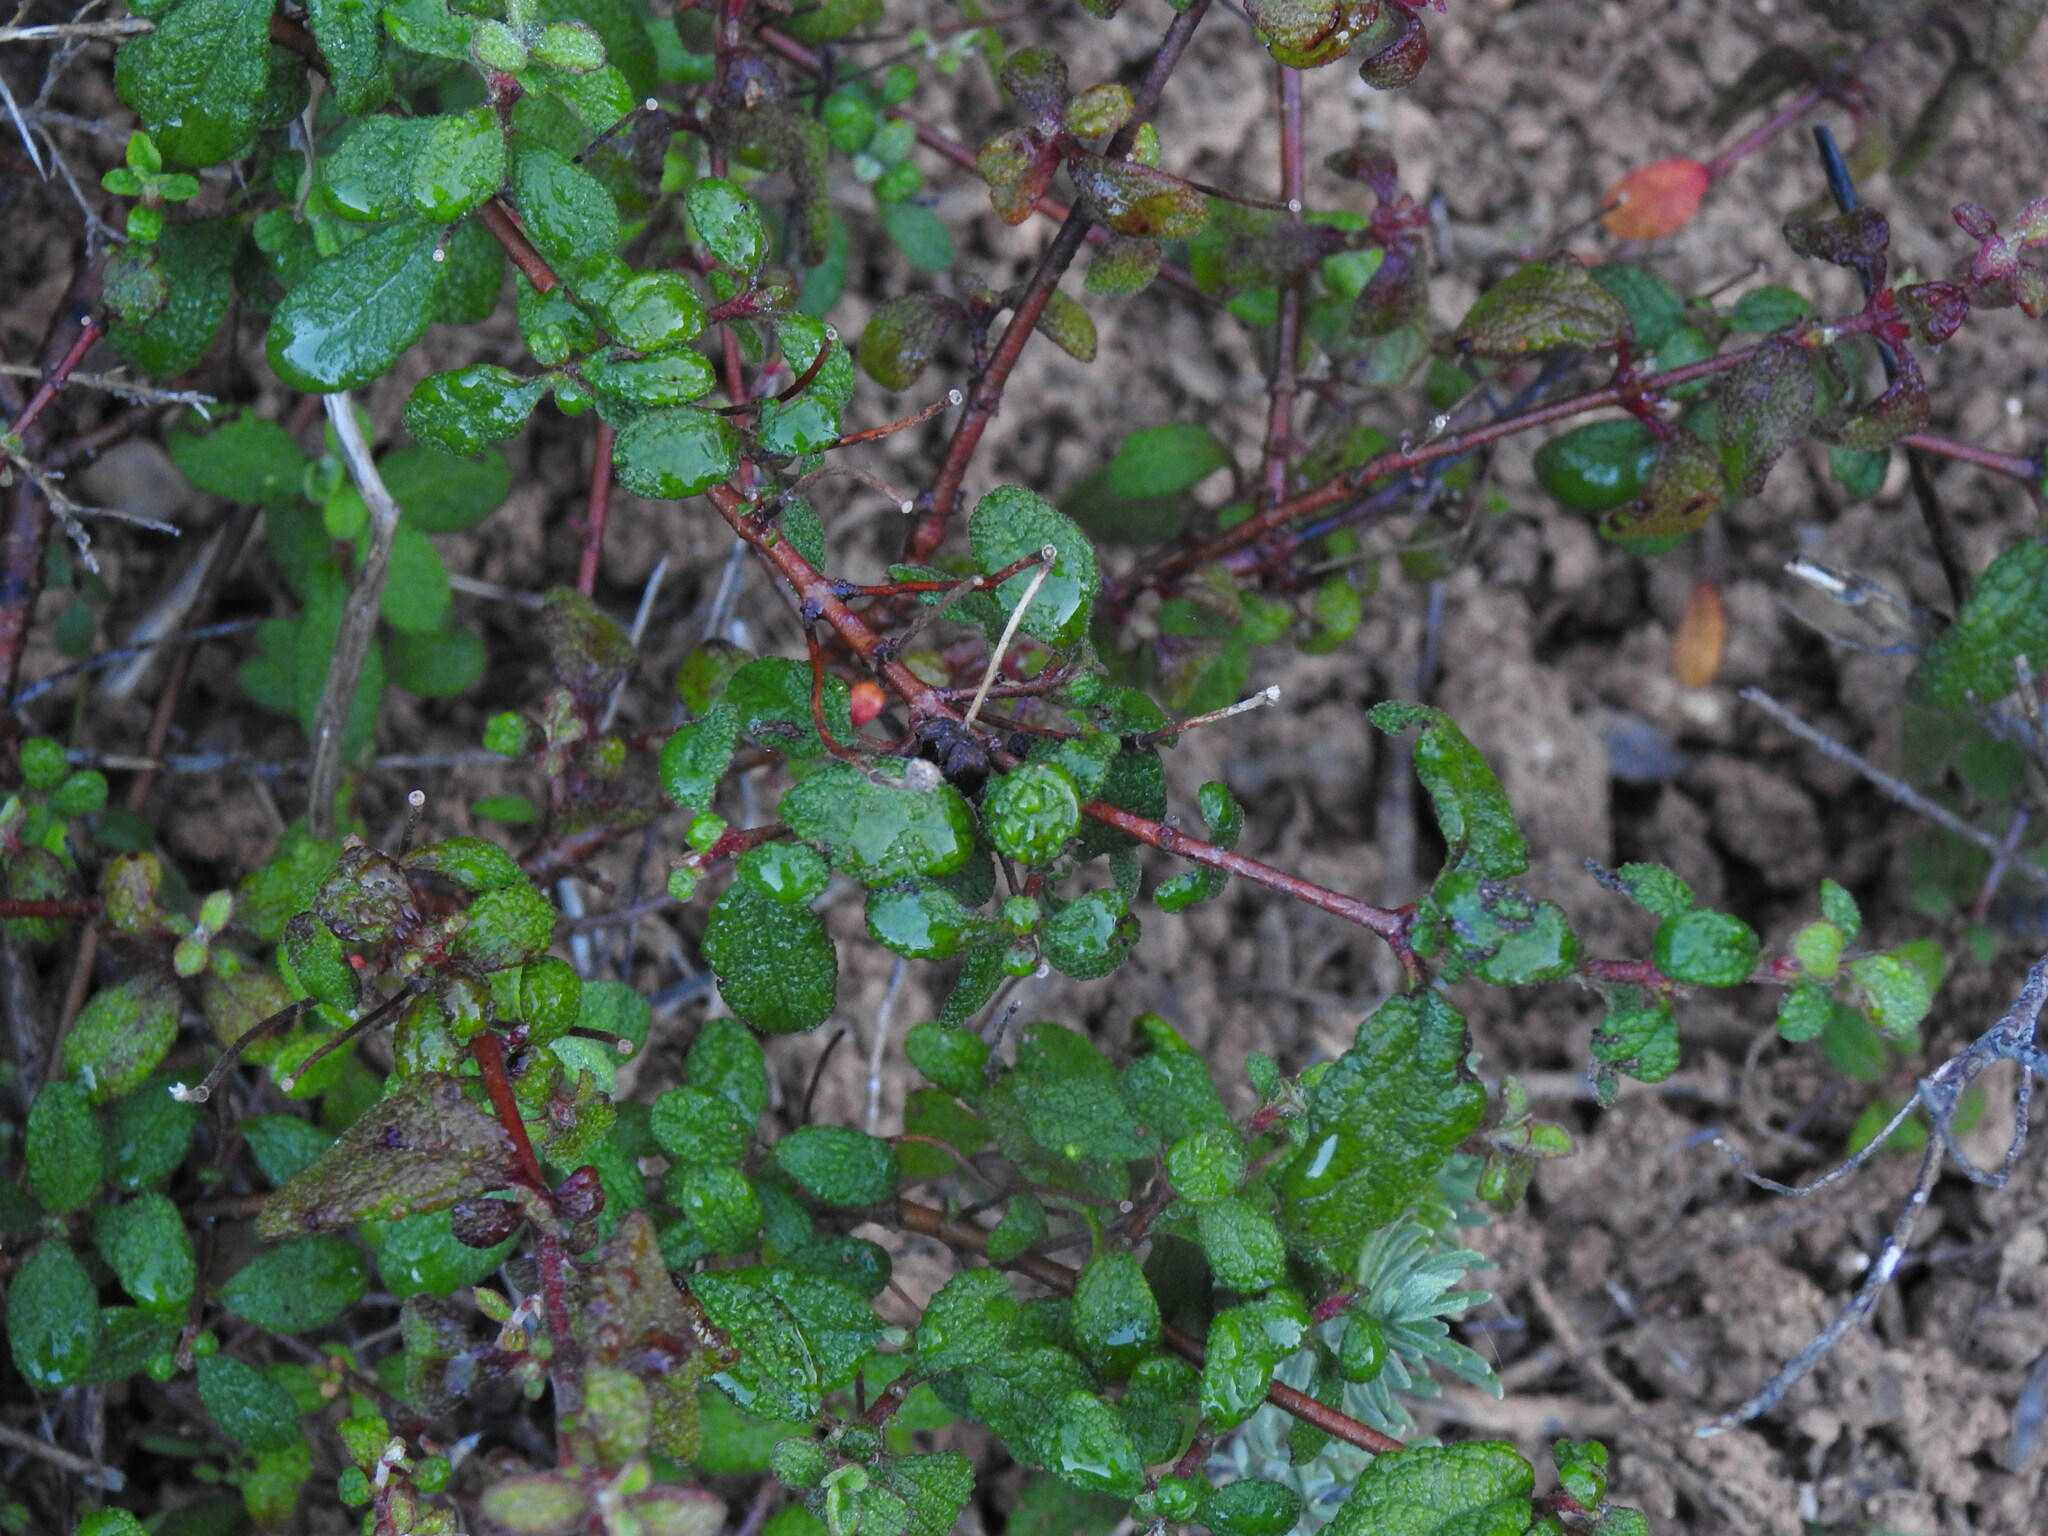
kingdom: Plantae
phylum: Tracheophyta
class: Magnoliopsida
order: Malvales
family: Cistaceae
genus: Cistus
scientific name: Cistus salviifolius
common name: Salvia cistus
